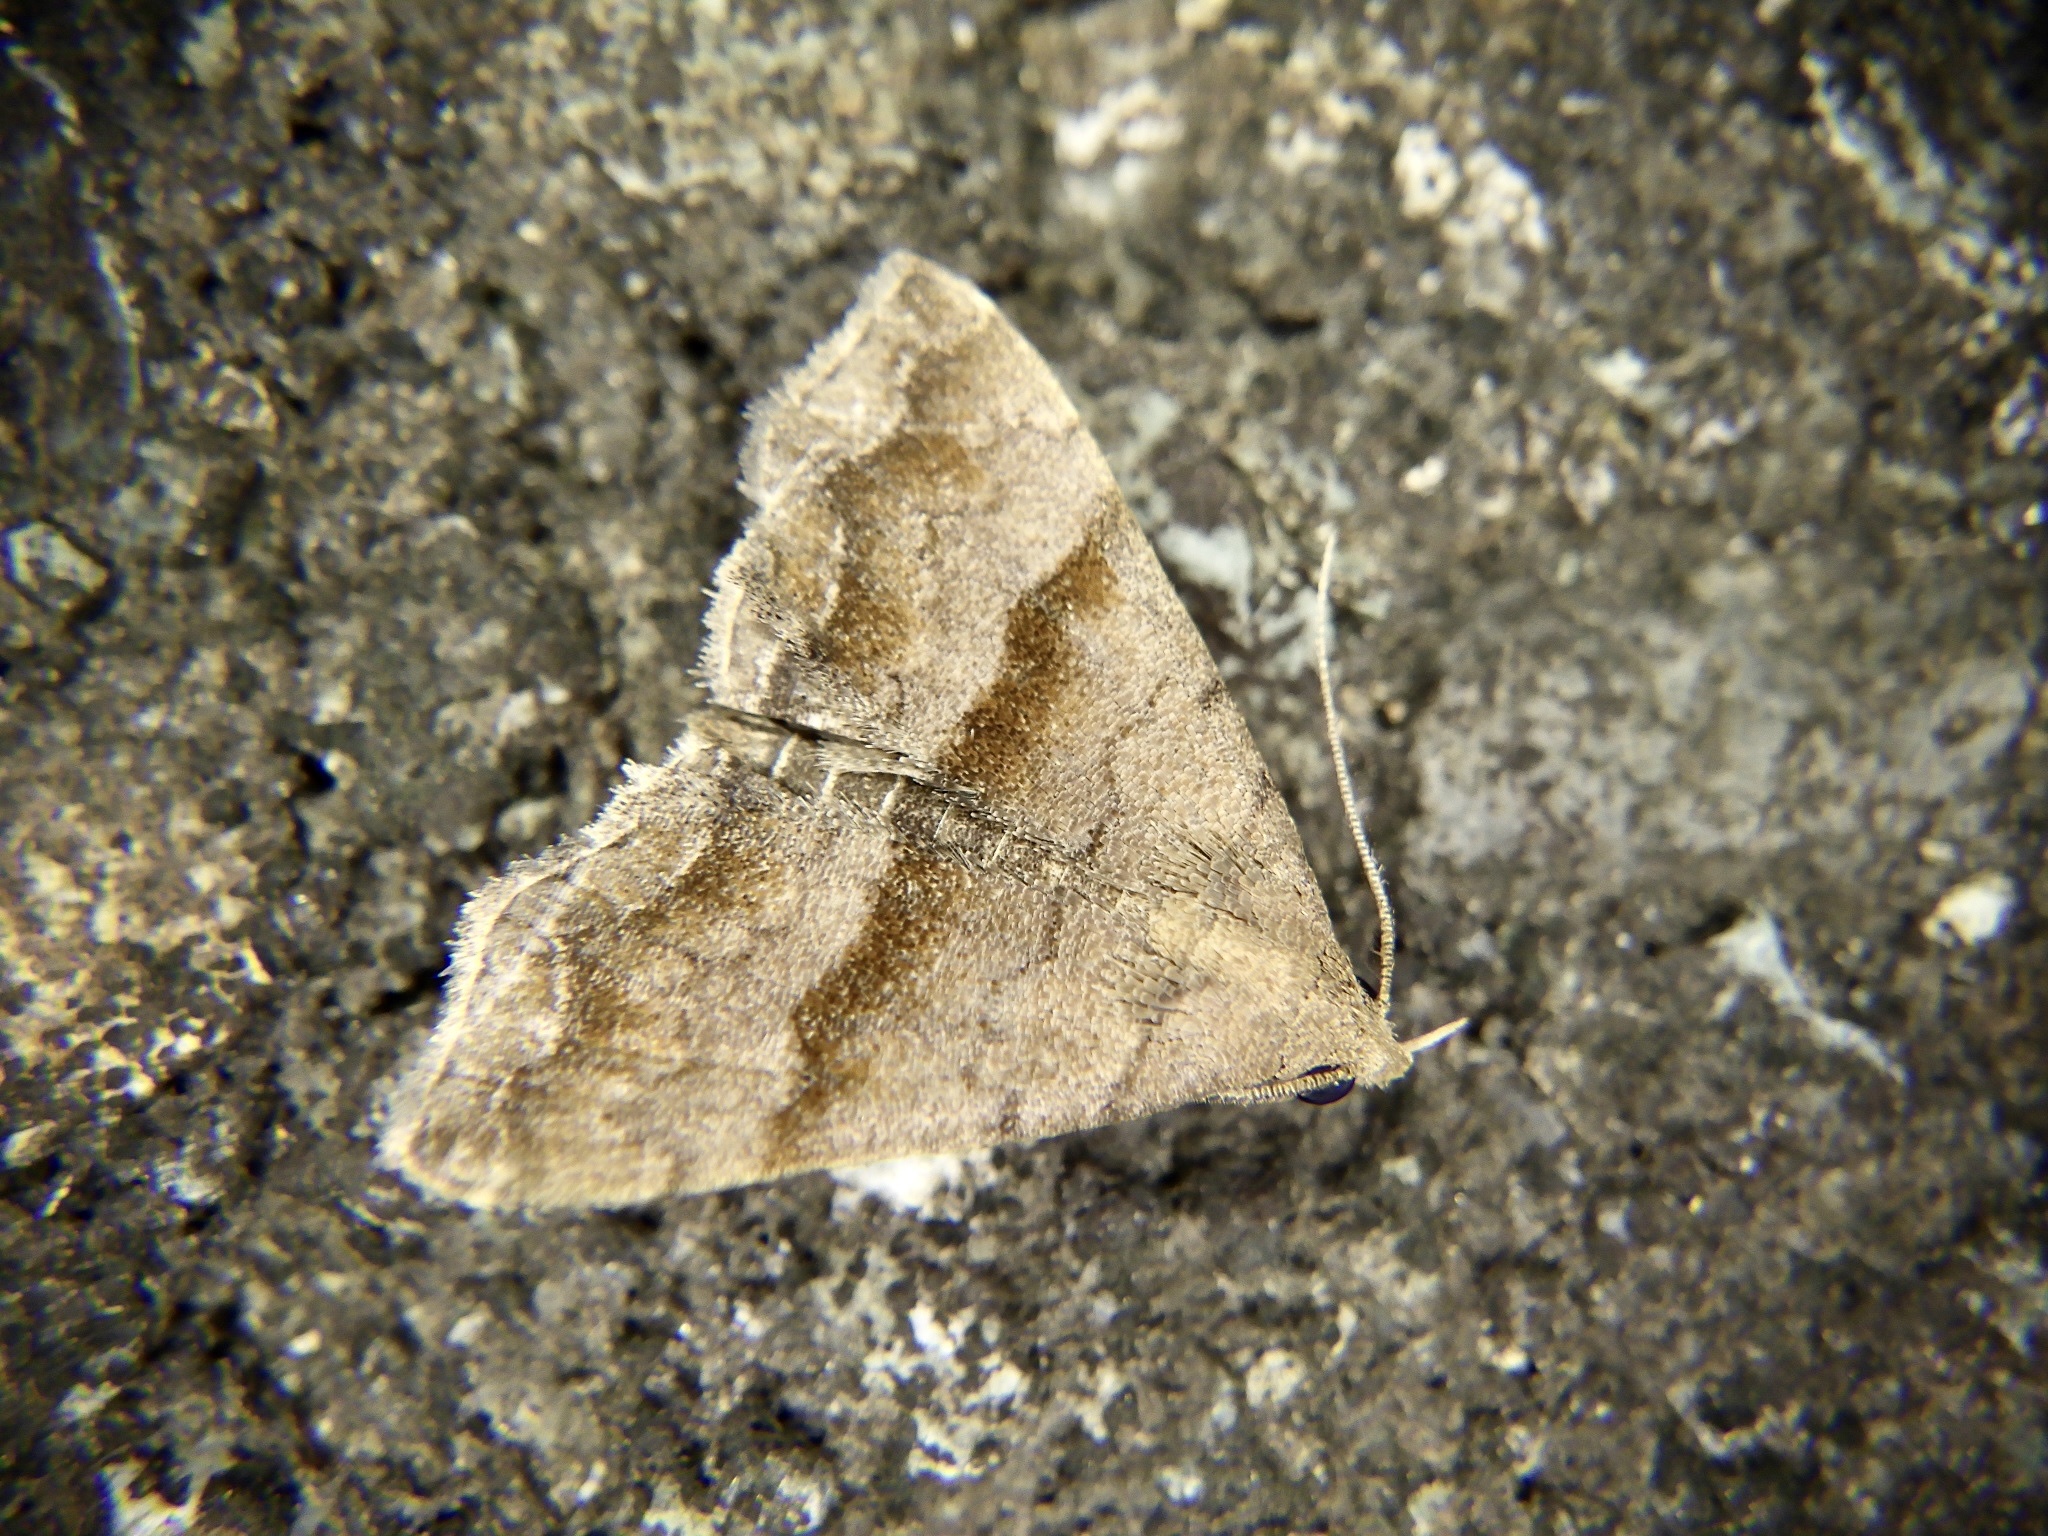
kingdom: Animalia
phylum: Arthropoda
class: Insecta
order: Lepidoptera
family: Erebidae
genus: Polypogon
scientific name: Polypogon Hipoepa fractalis
